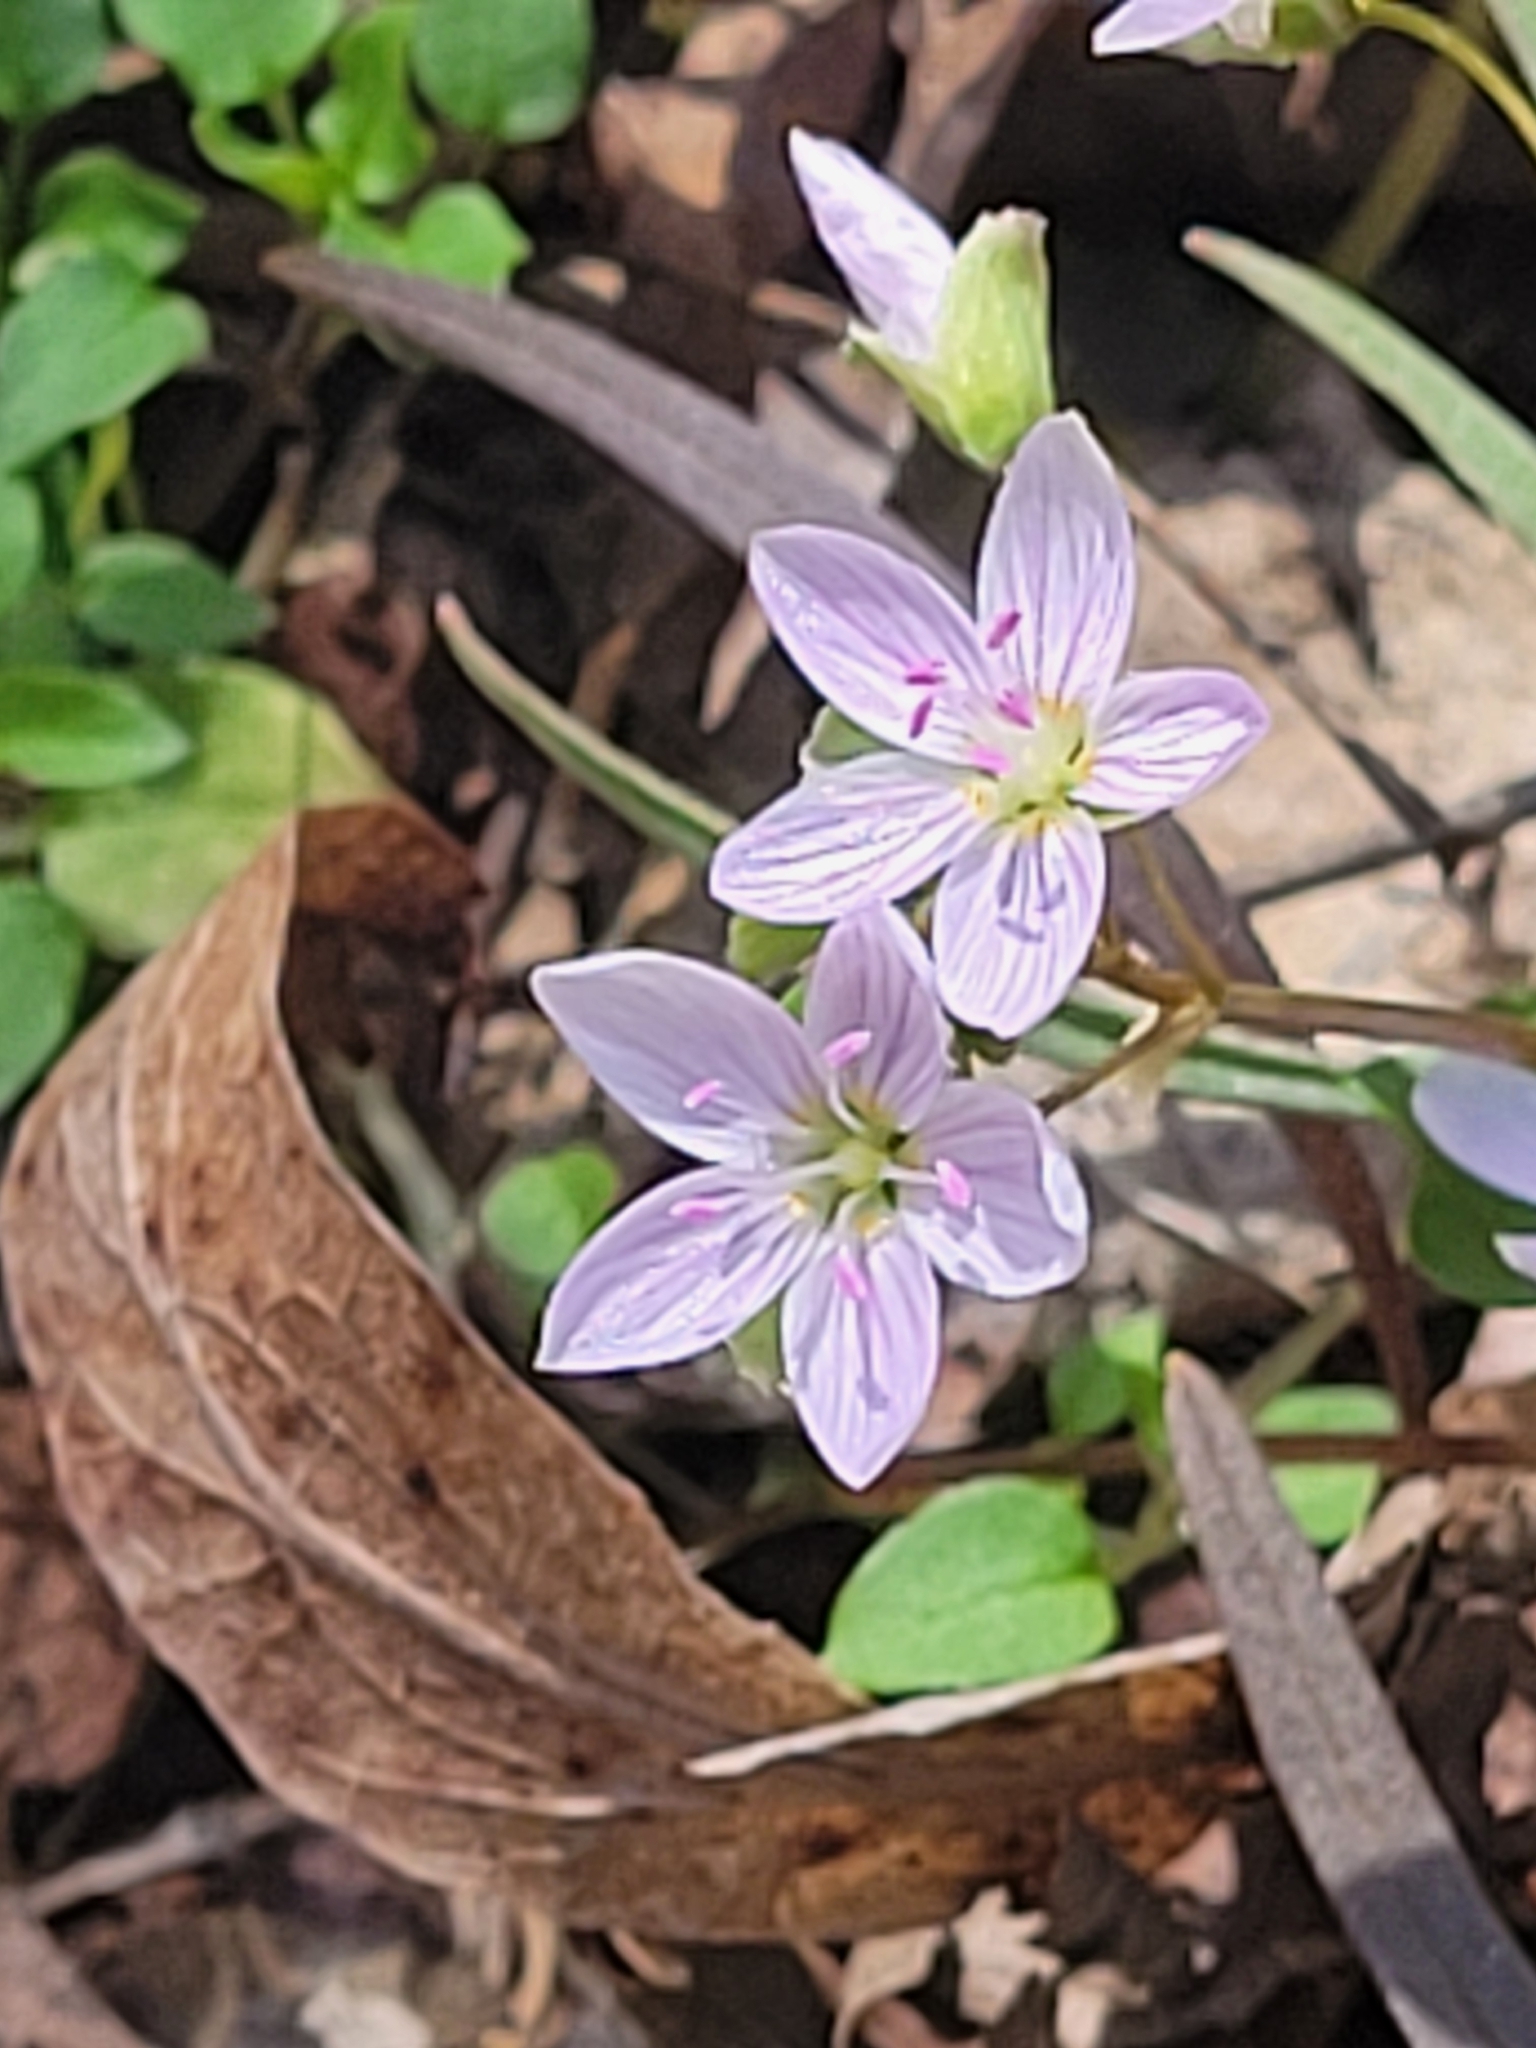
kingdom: Plantae
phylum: Tracheophyta
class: Magnoliopsida
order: Caryophyllales
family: Montiaceae
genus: Claytonia
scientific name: Claytonia virginica
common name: Virginia springbeauty
